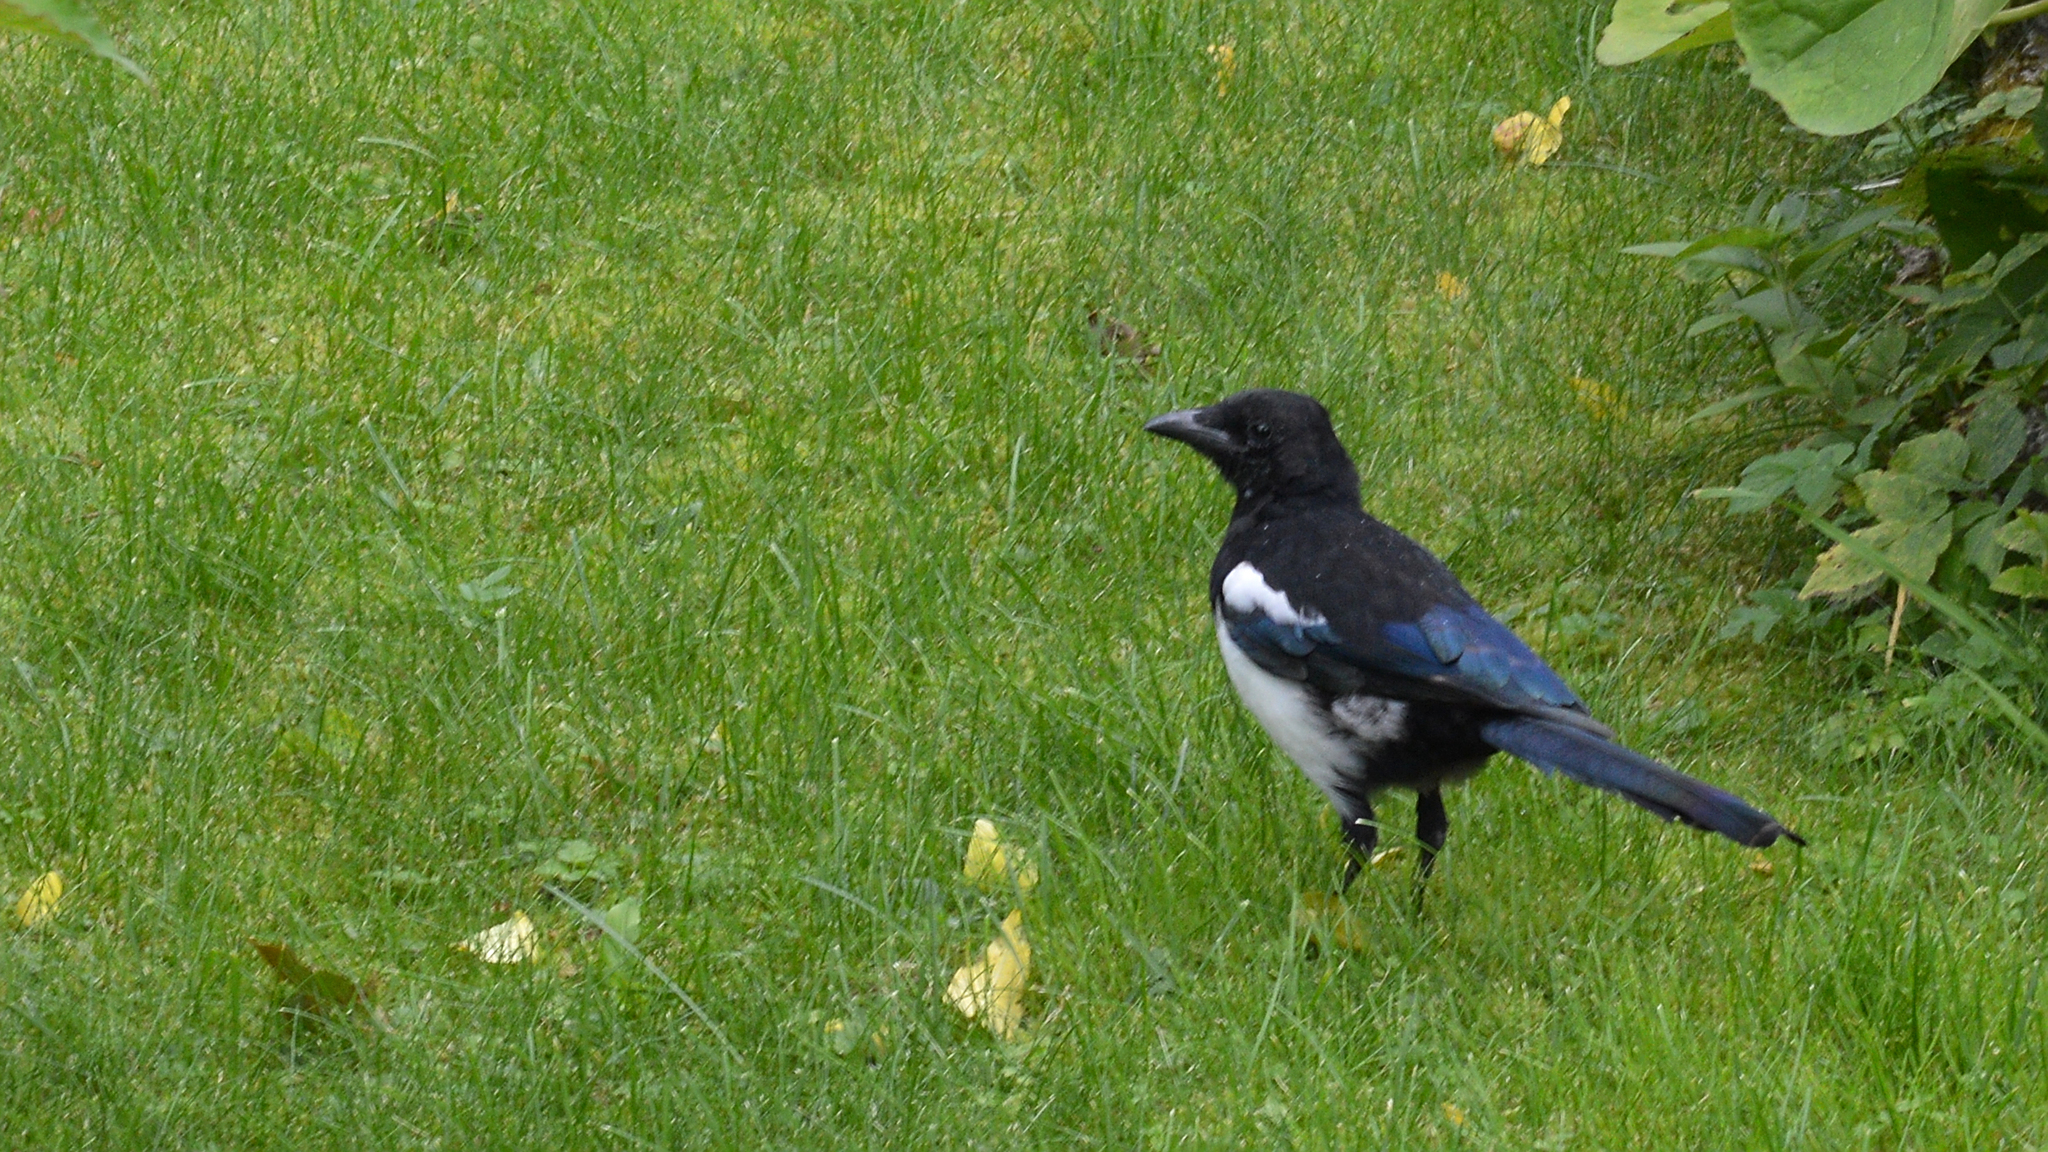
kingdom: Animalia
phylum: Chordata
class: Aves
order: Passeriformes
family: Corvidae
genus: Pica
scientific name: Pica pica
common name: Eurasian magpie
